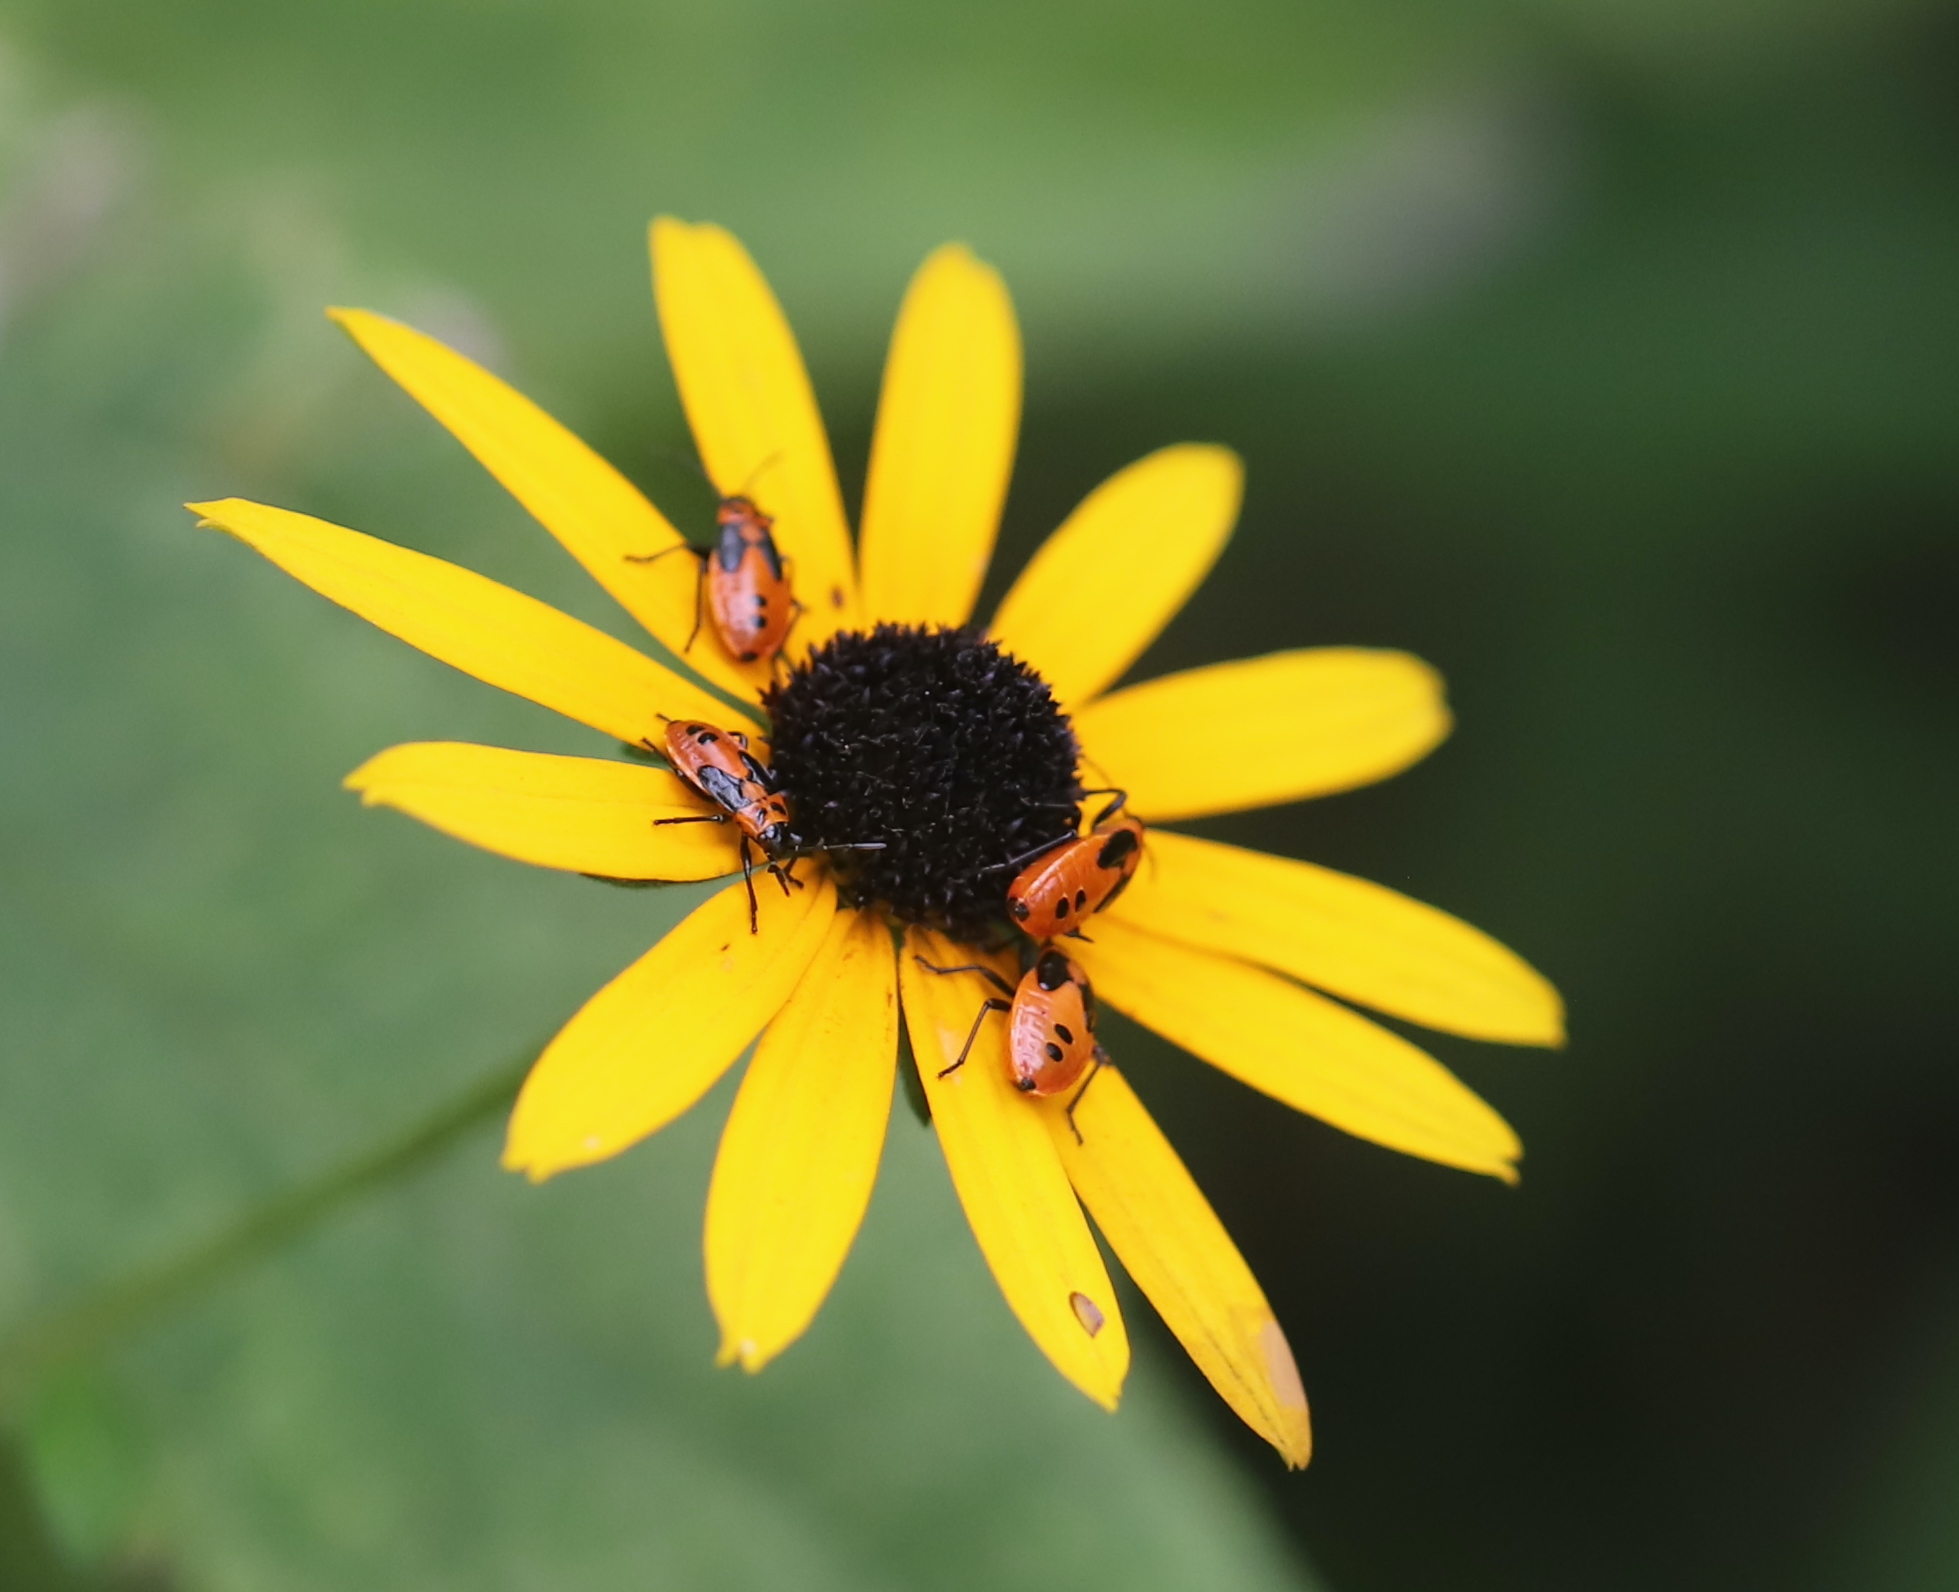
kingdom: Animalia
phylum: Arthropoda
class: Insecta
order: Hemiptera
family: Lygaeidae
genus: Lygaeus
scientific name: Lygaeus turcicus
